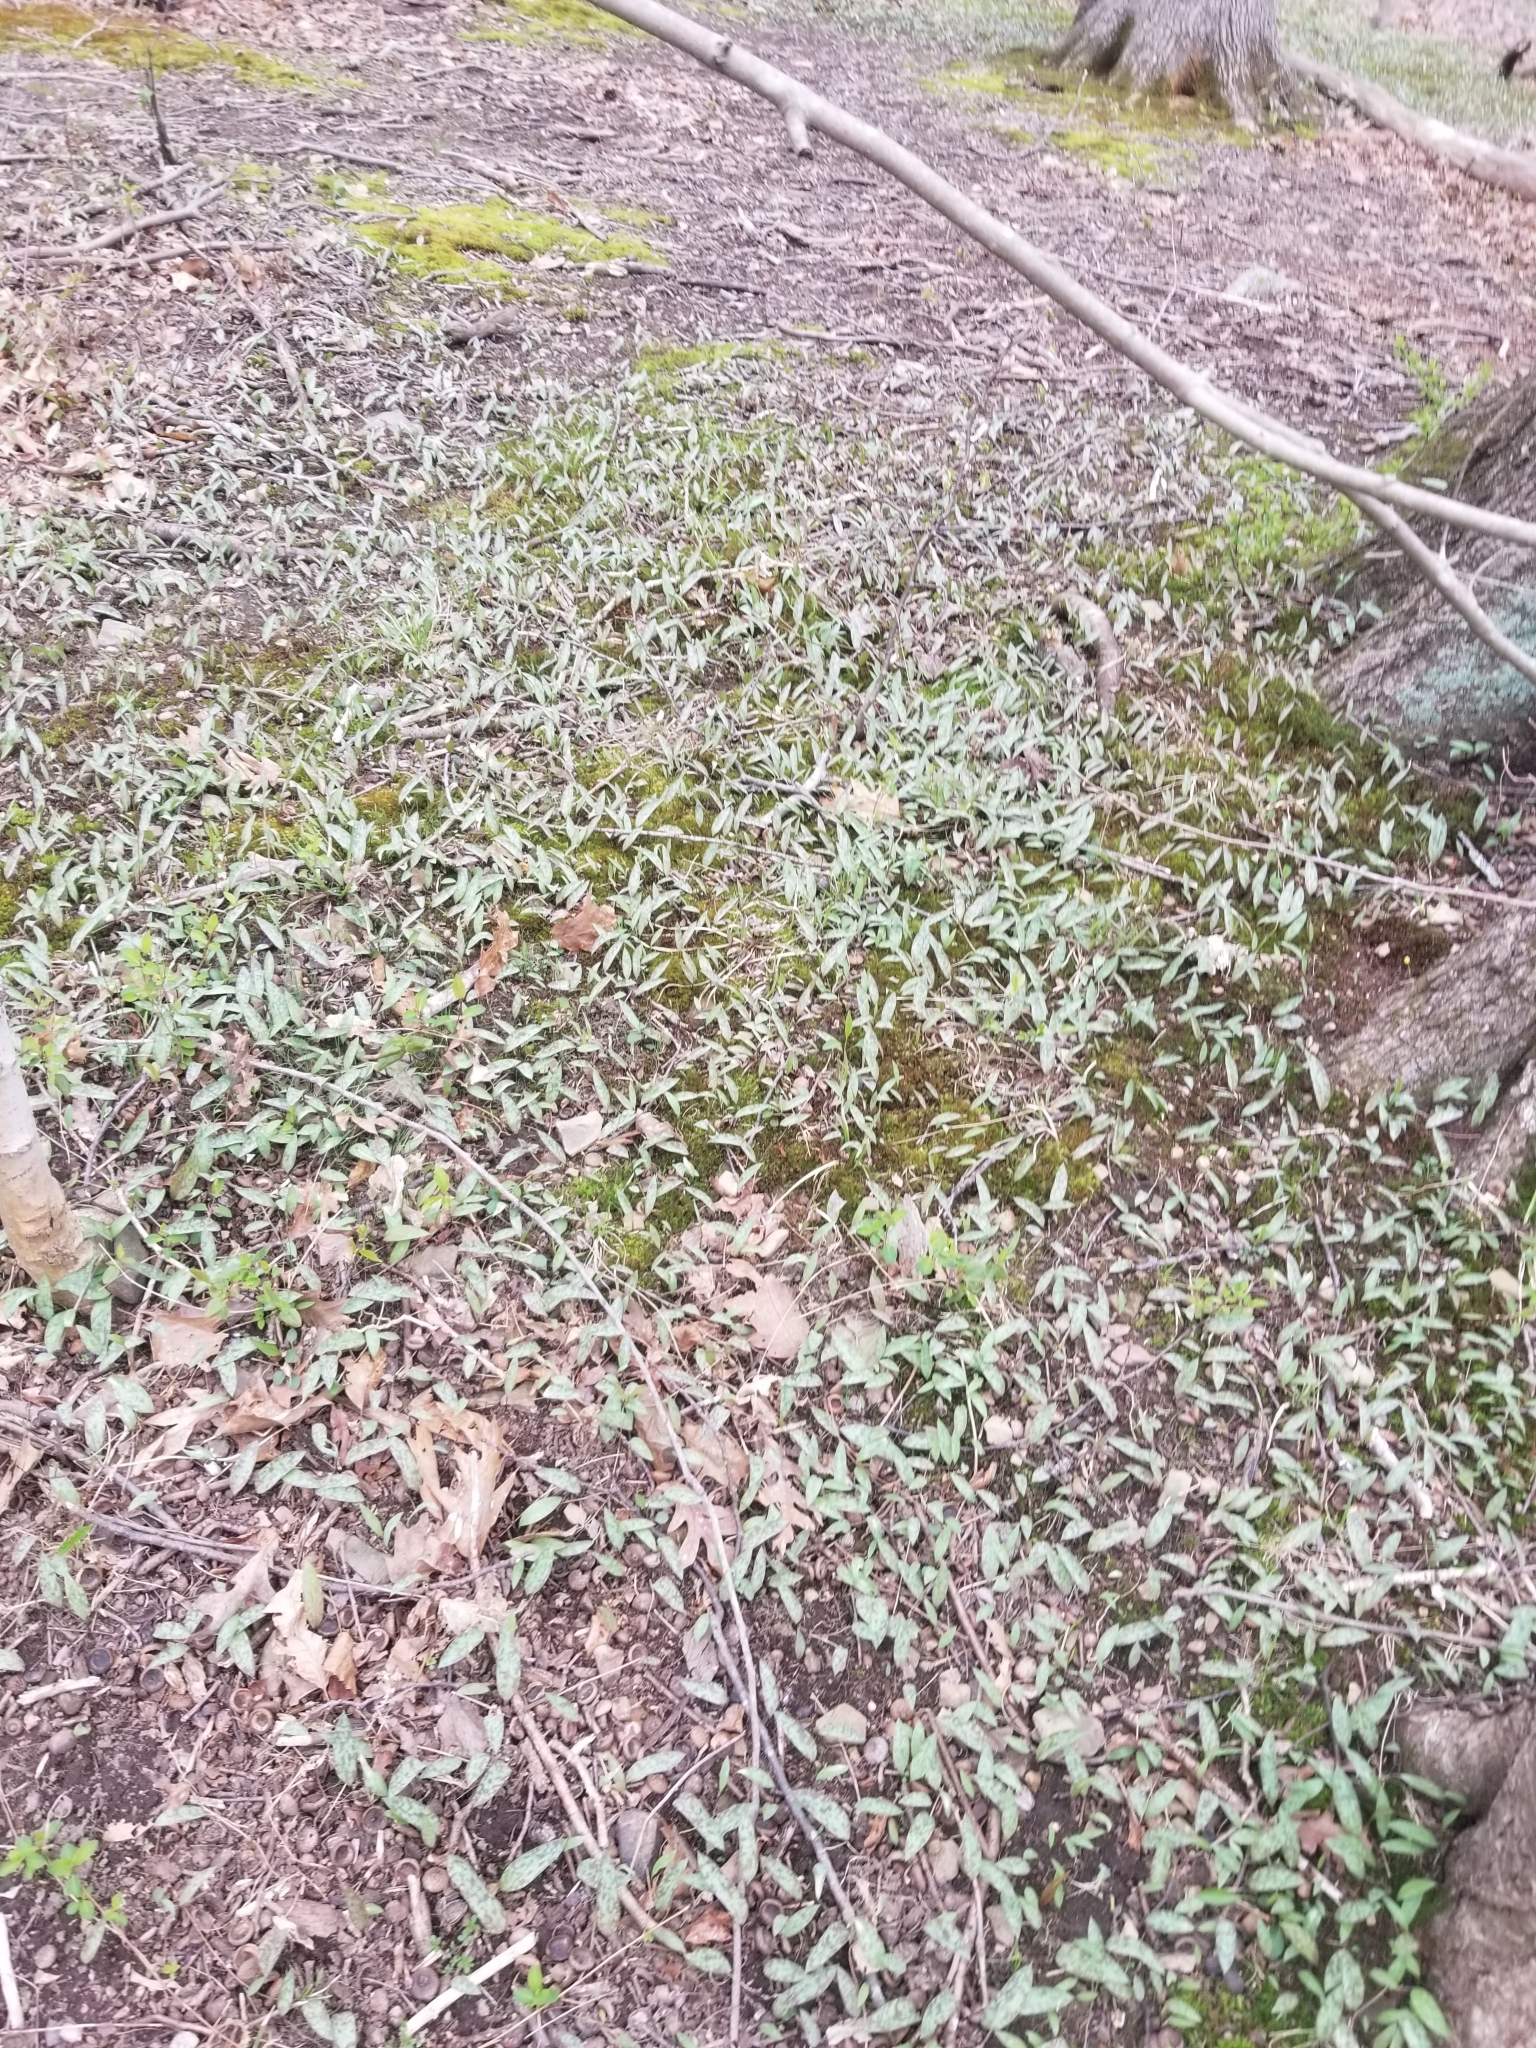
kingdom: Plantae
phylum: Tracheophyta
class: Liliopsida
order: Liliales
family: Liliaceae
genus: Erythronium
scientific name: Erythronium americanum
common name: Yellow adder's-tongue
